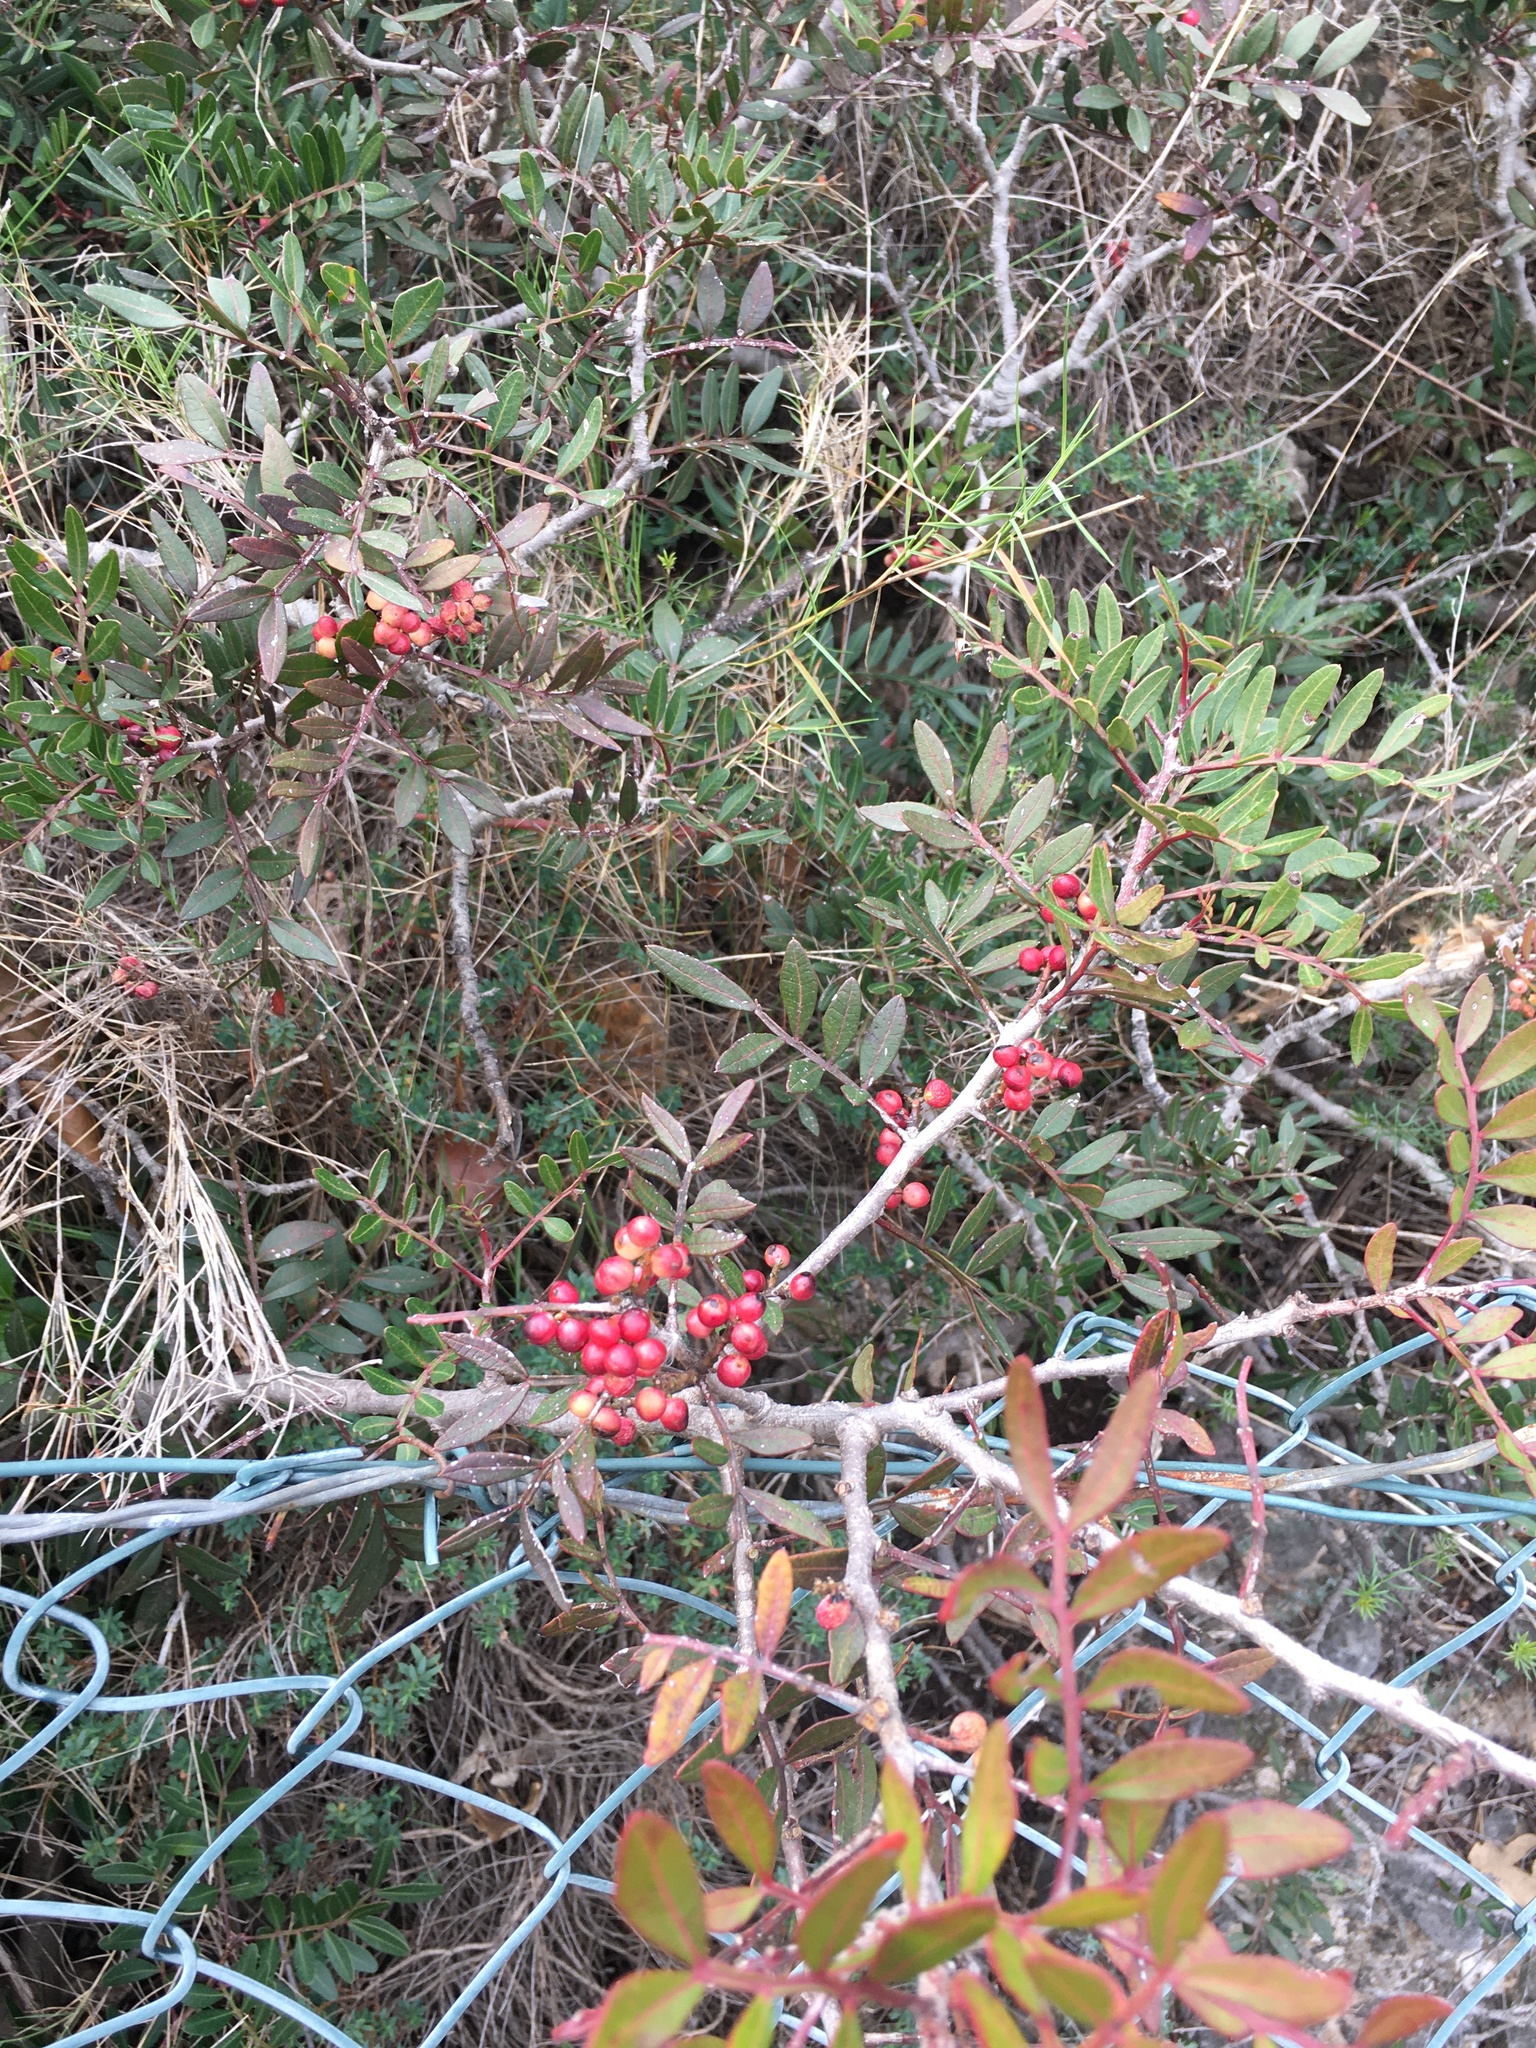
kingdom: Plantae
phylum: Tracheophyta
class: Magnoliopsida
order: Sapindales
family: Anacardiaceae
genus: Pistacia
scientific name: Pistacia lentiscus
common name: Lentisk
